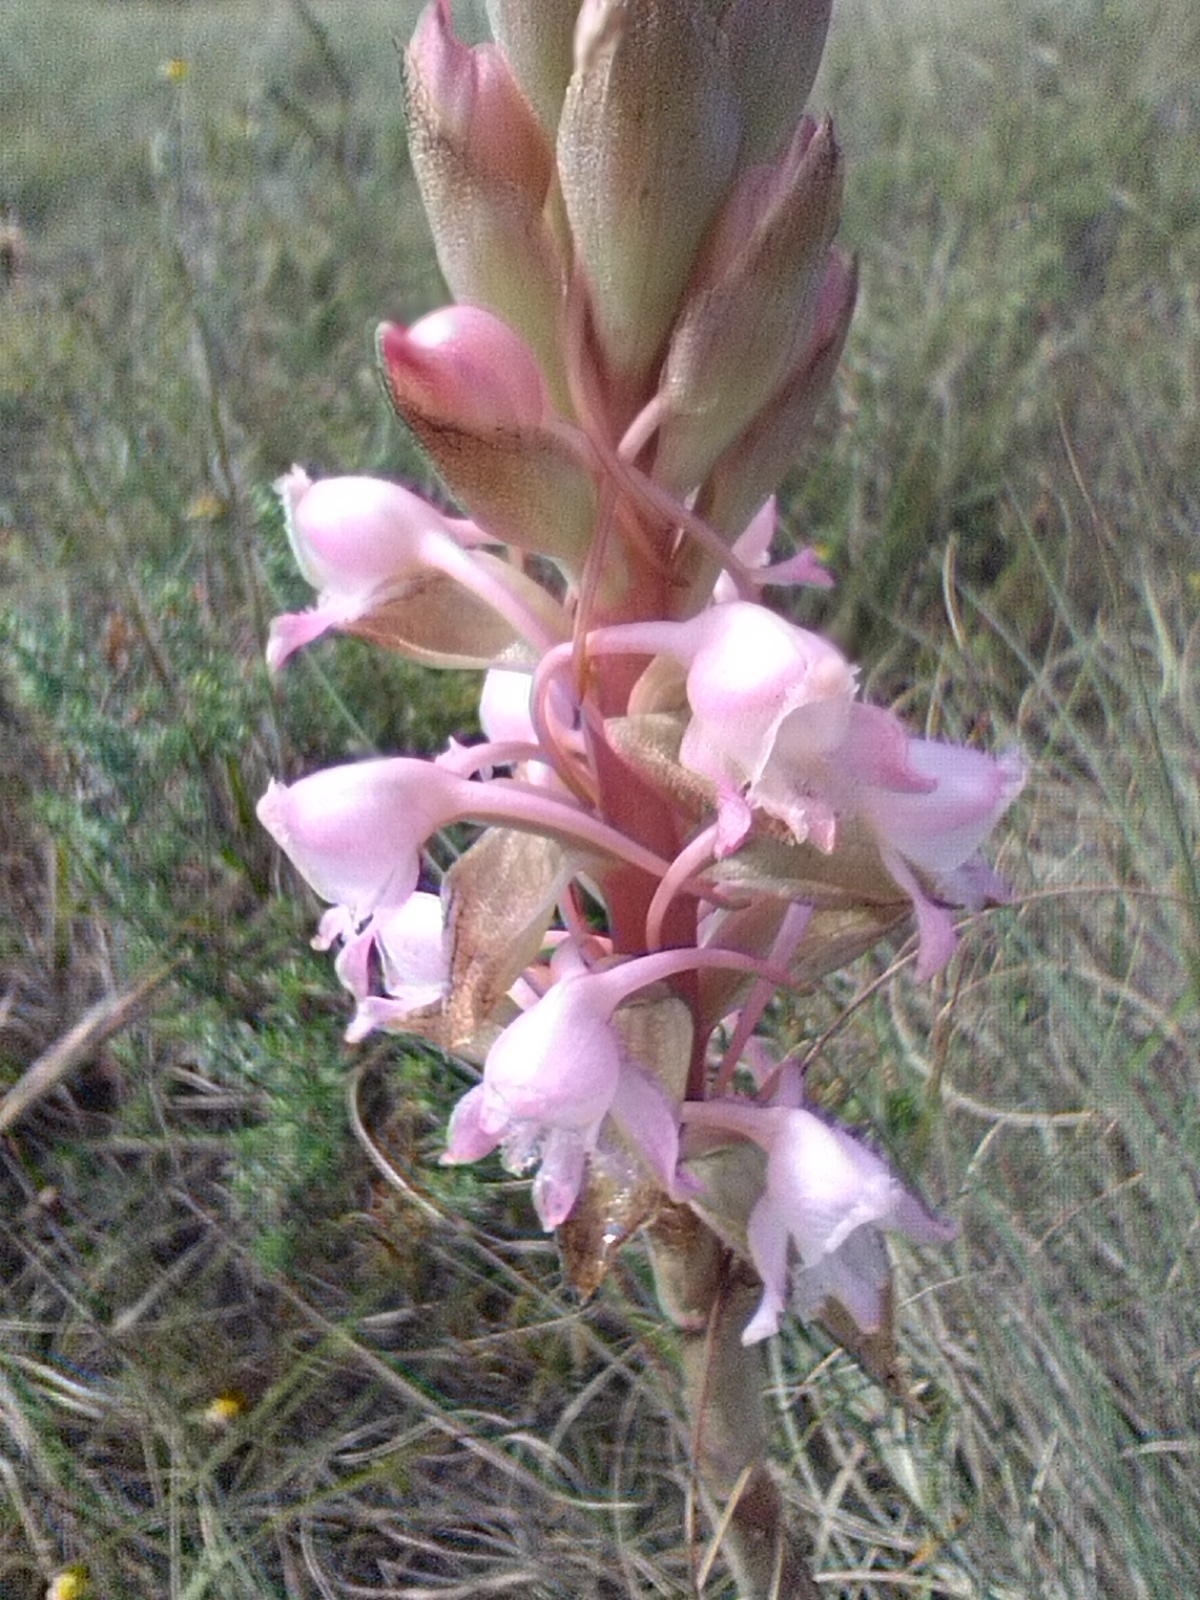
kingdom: Plantae
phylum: Tracheophyta
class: Liliopsida
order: Asparagales
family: Orchidaceae
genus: Satyrium
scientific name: Satyrium membranaceum
